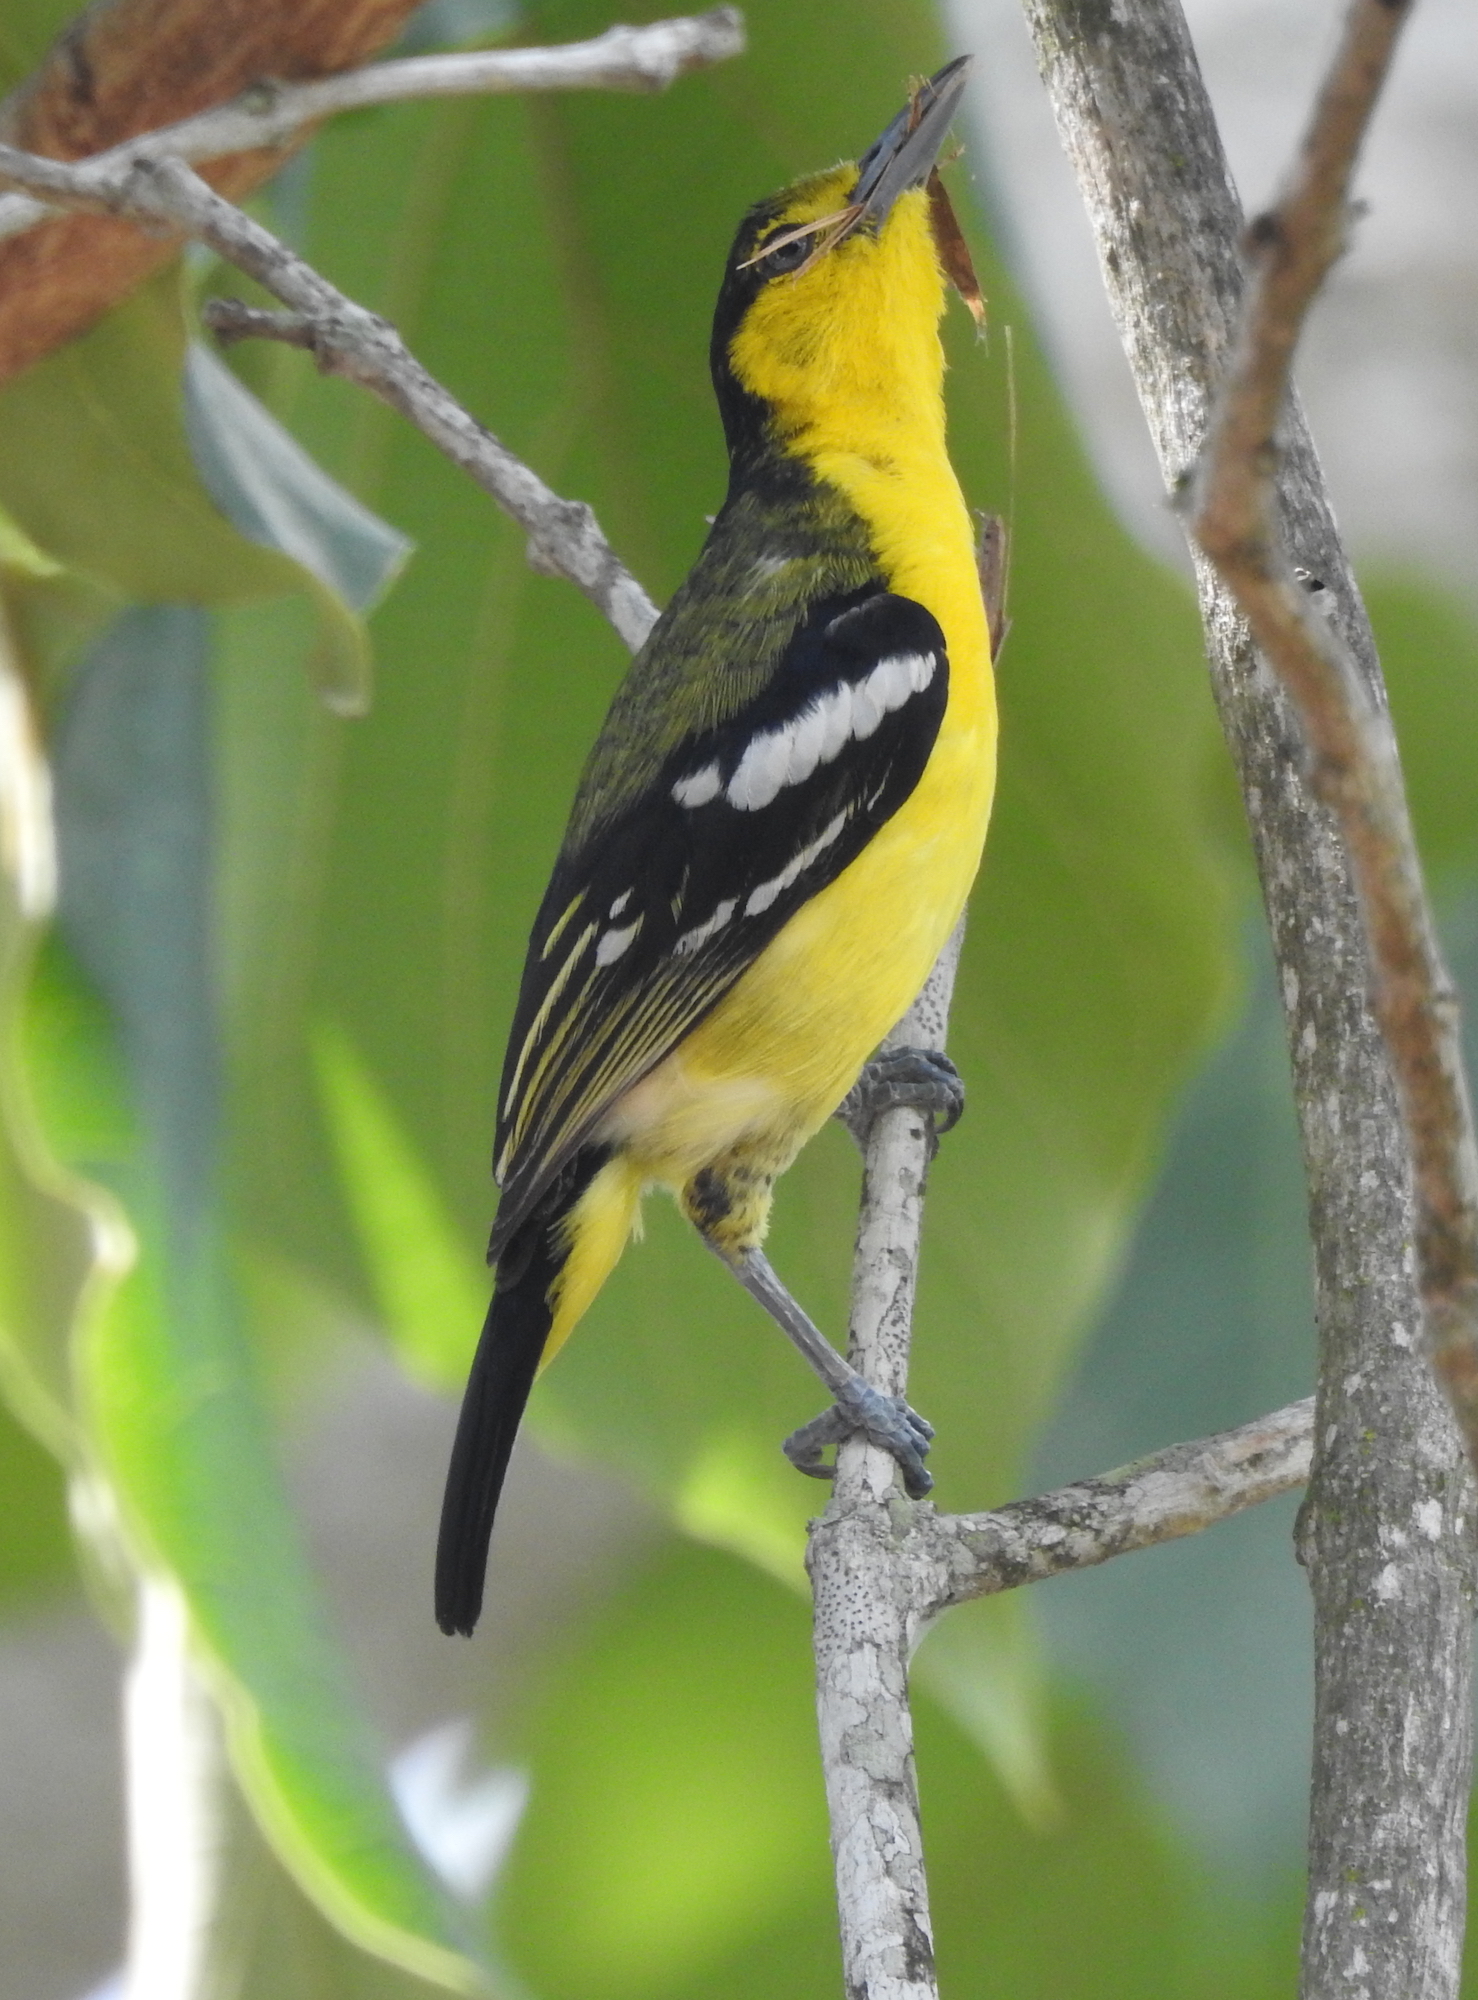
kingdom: Animalia
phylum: Chordata
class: Aves
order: Passeriformes
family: Aegithinidae
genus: Aegithina
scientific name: Aegithina tiphia
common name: Common iora
